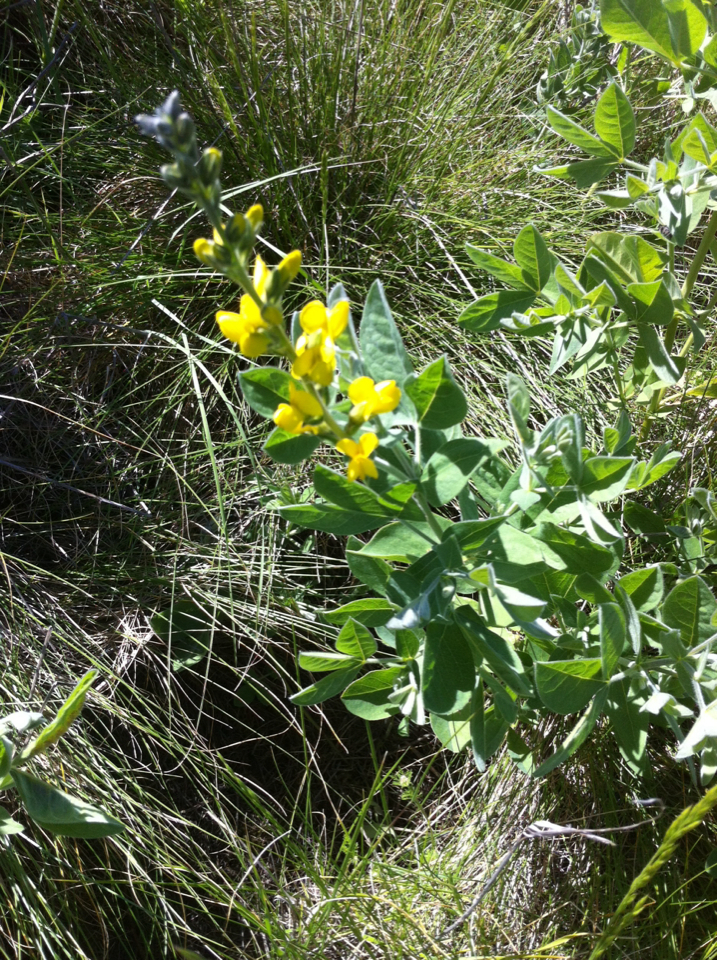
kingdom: Plantae
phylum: Tracheophyta
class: Magnoliopsida
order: Fabales
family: Fabaceae
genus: Thermopsis
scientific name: Thermopsis californica
